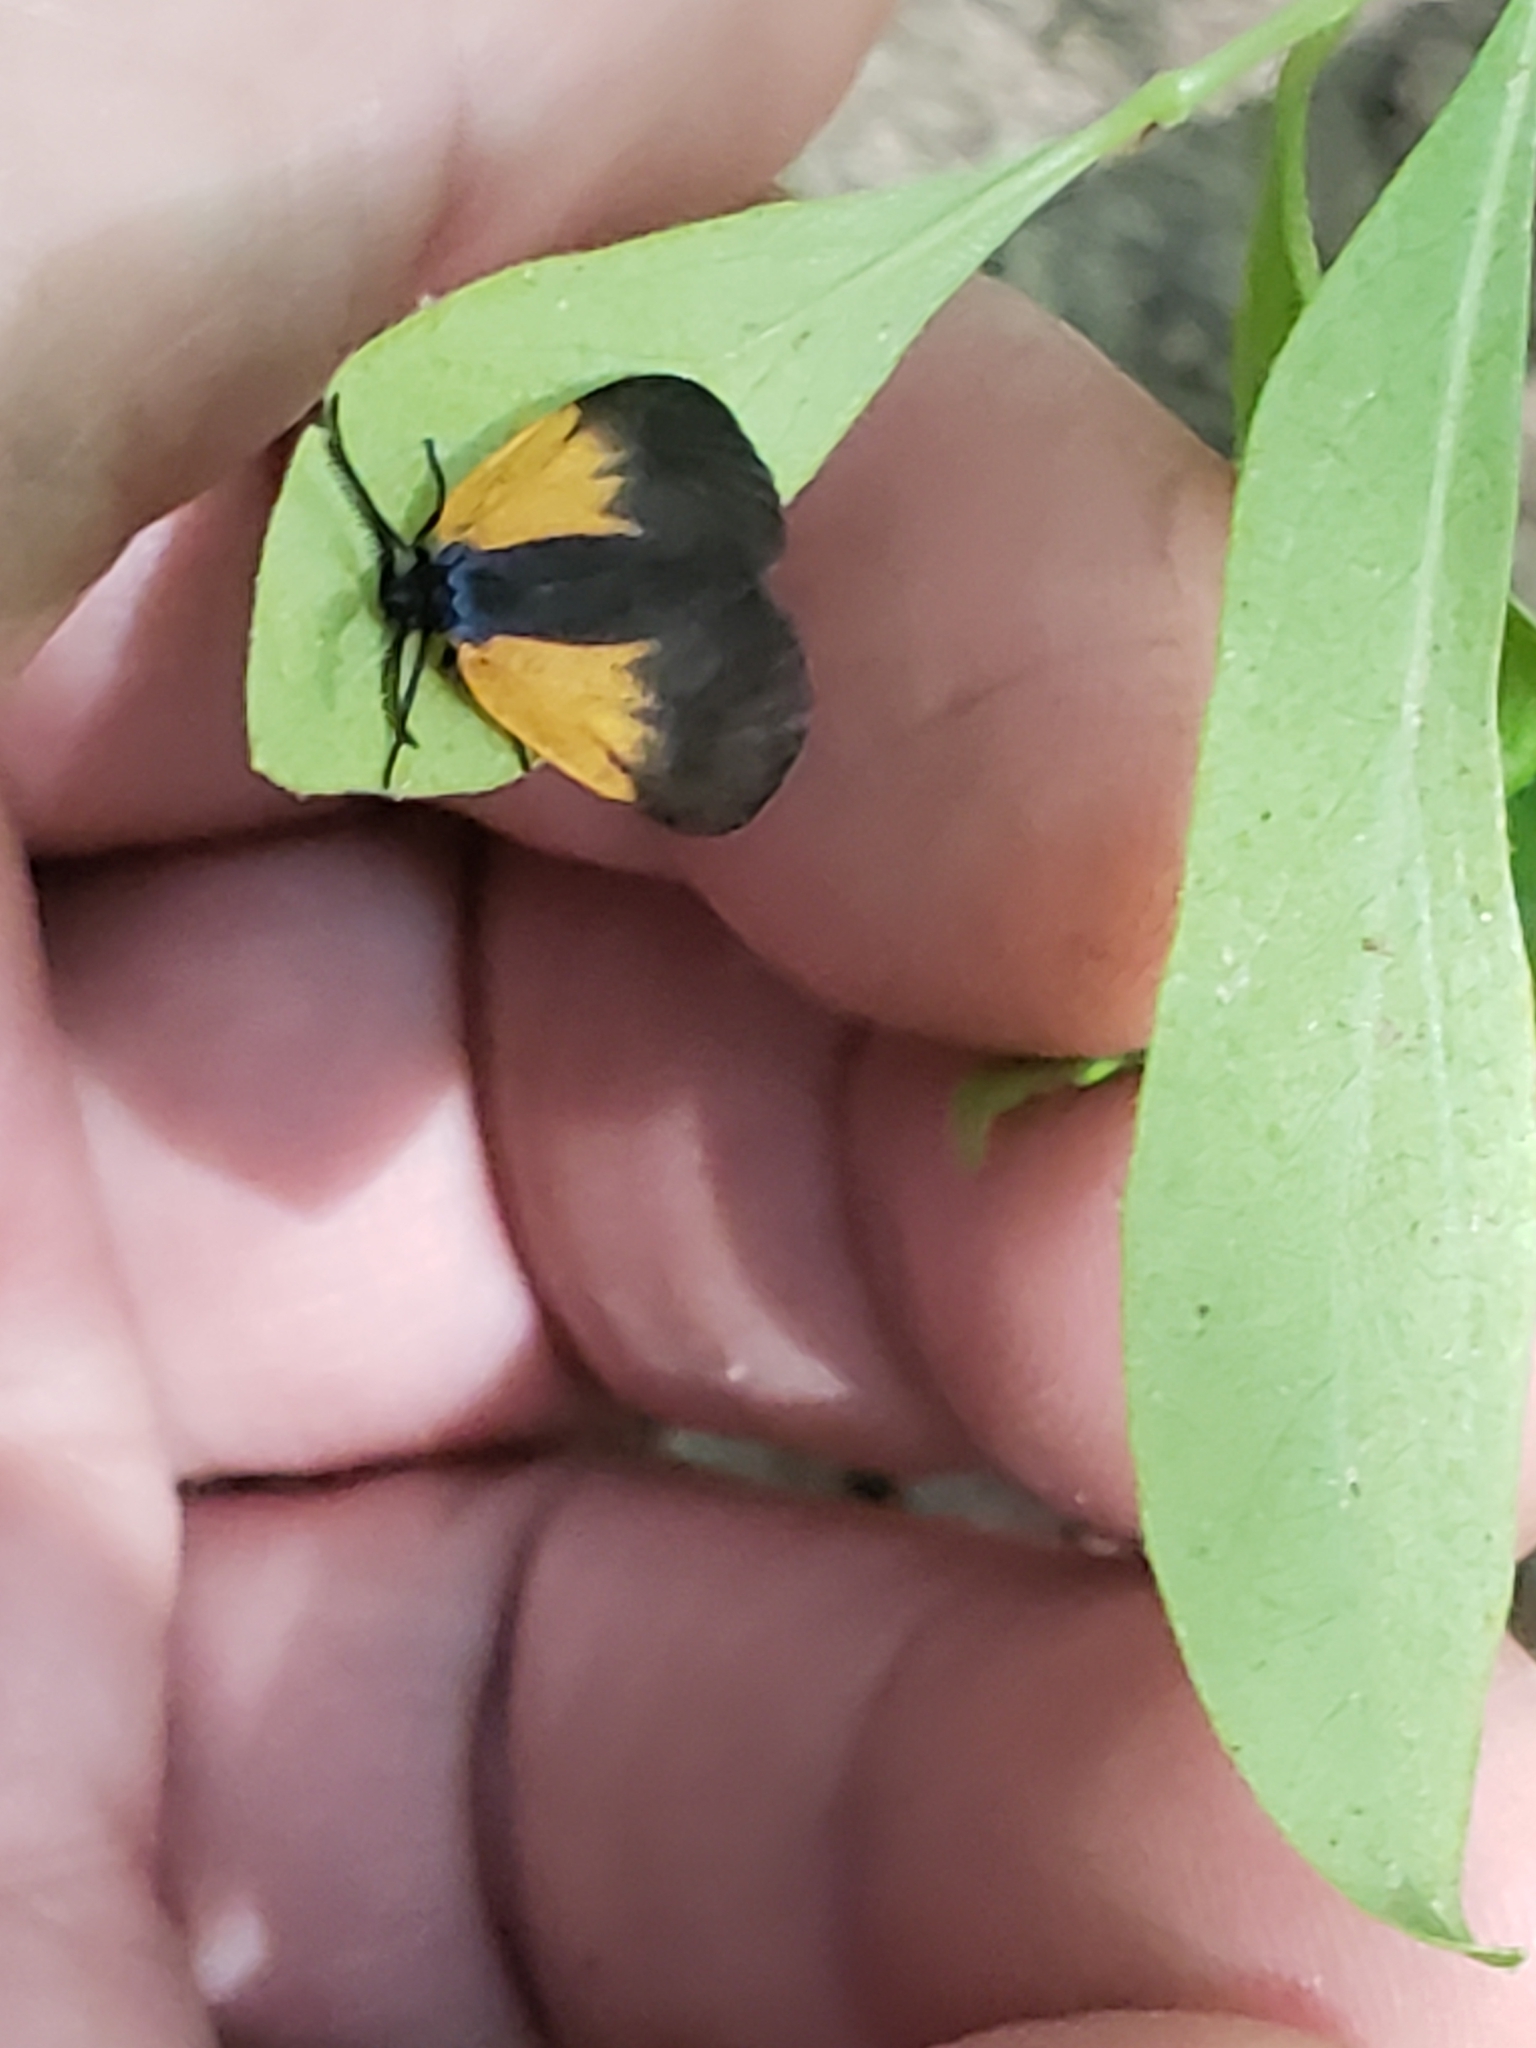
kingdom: Animalia
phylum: Arthropoda
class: Insecta
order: Lepidoptera
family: Zygaenidae
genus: Malthaca
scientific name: Malthaca dimidiata
